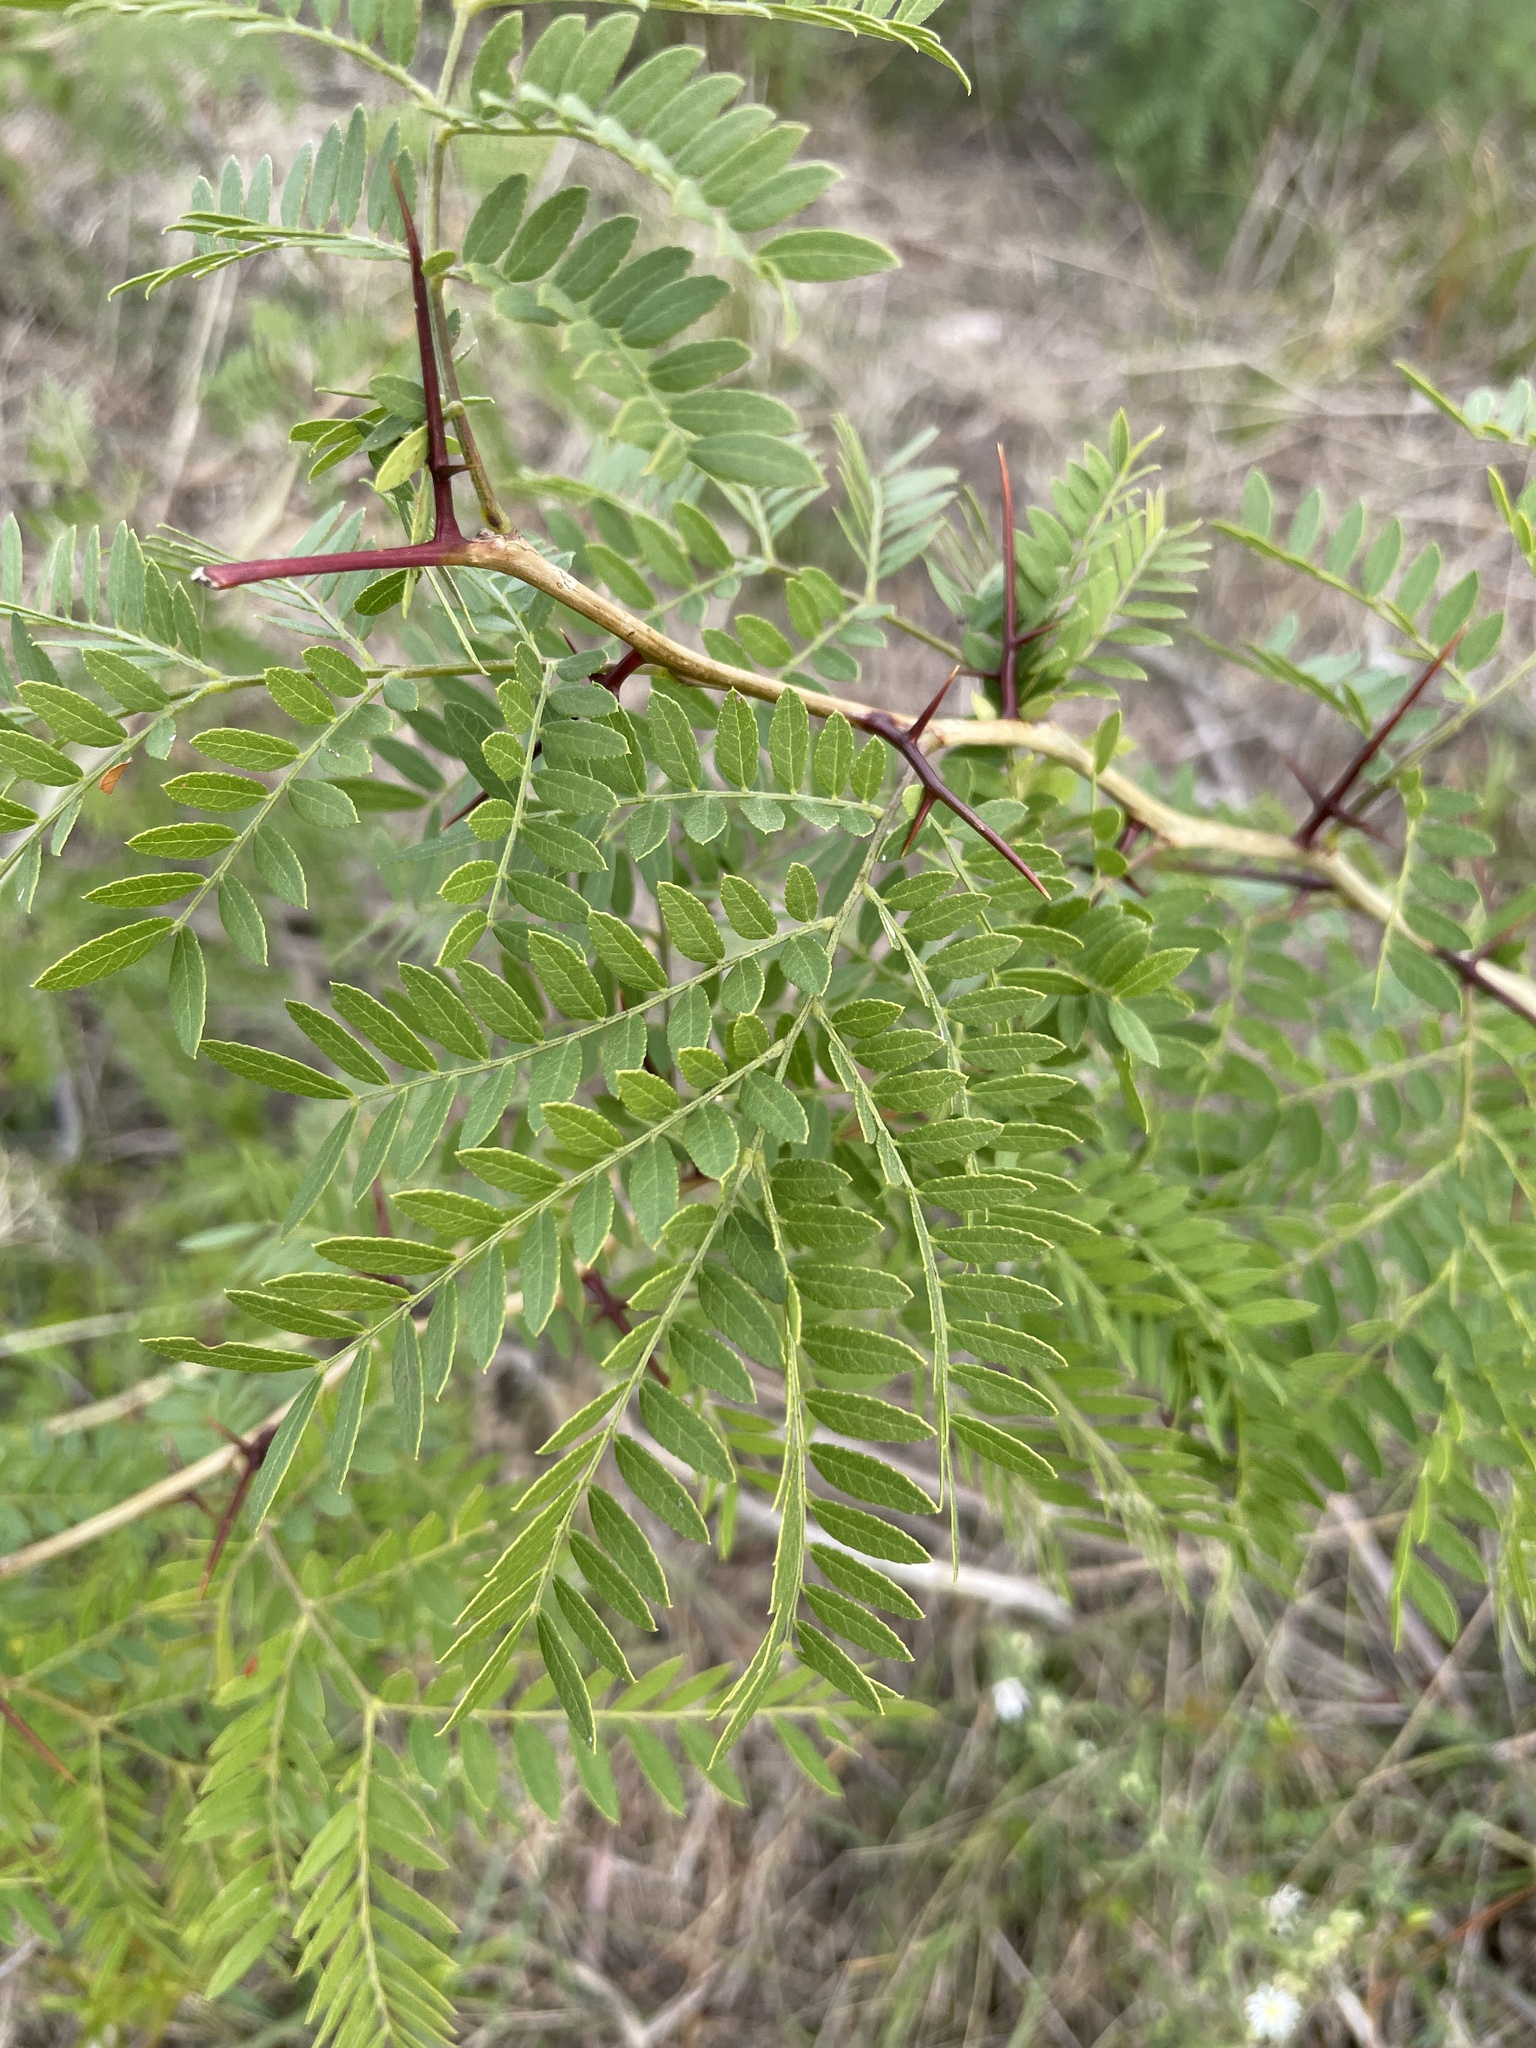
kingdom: Plantae
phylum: Tracheophyta
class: Magnoliopsida
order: Fabales
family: Fabaceae
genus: Gleditsia
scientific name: Gleditsia triacanthos
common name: Common honeylocust
